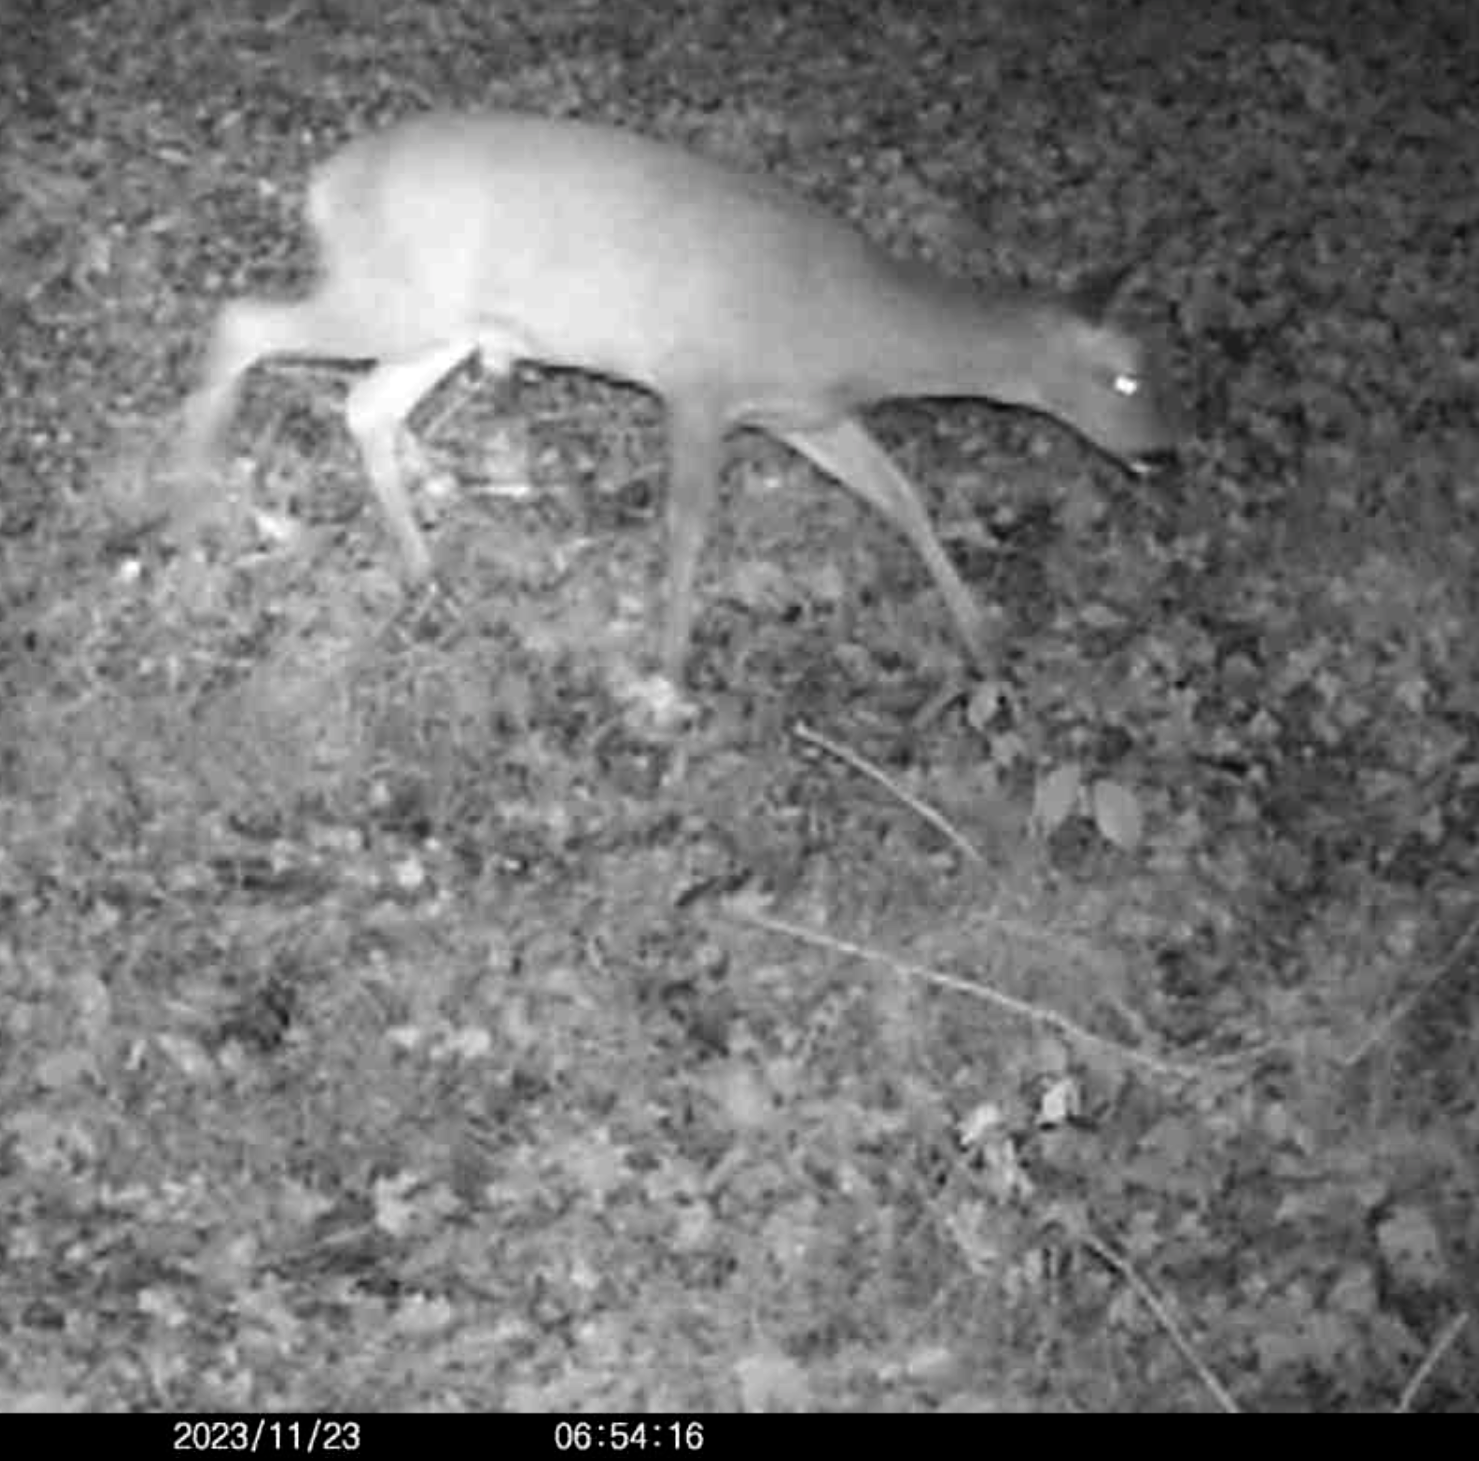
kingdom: Animalia
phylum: Chordata
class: Mammalia
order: Artiodactyla
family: Cervidae
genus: Capreolus
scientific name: Capreolus capreolus
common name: Western roe deer
